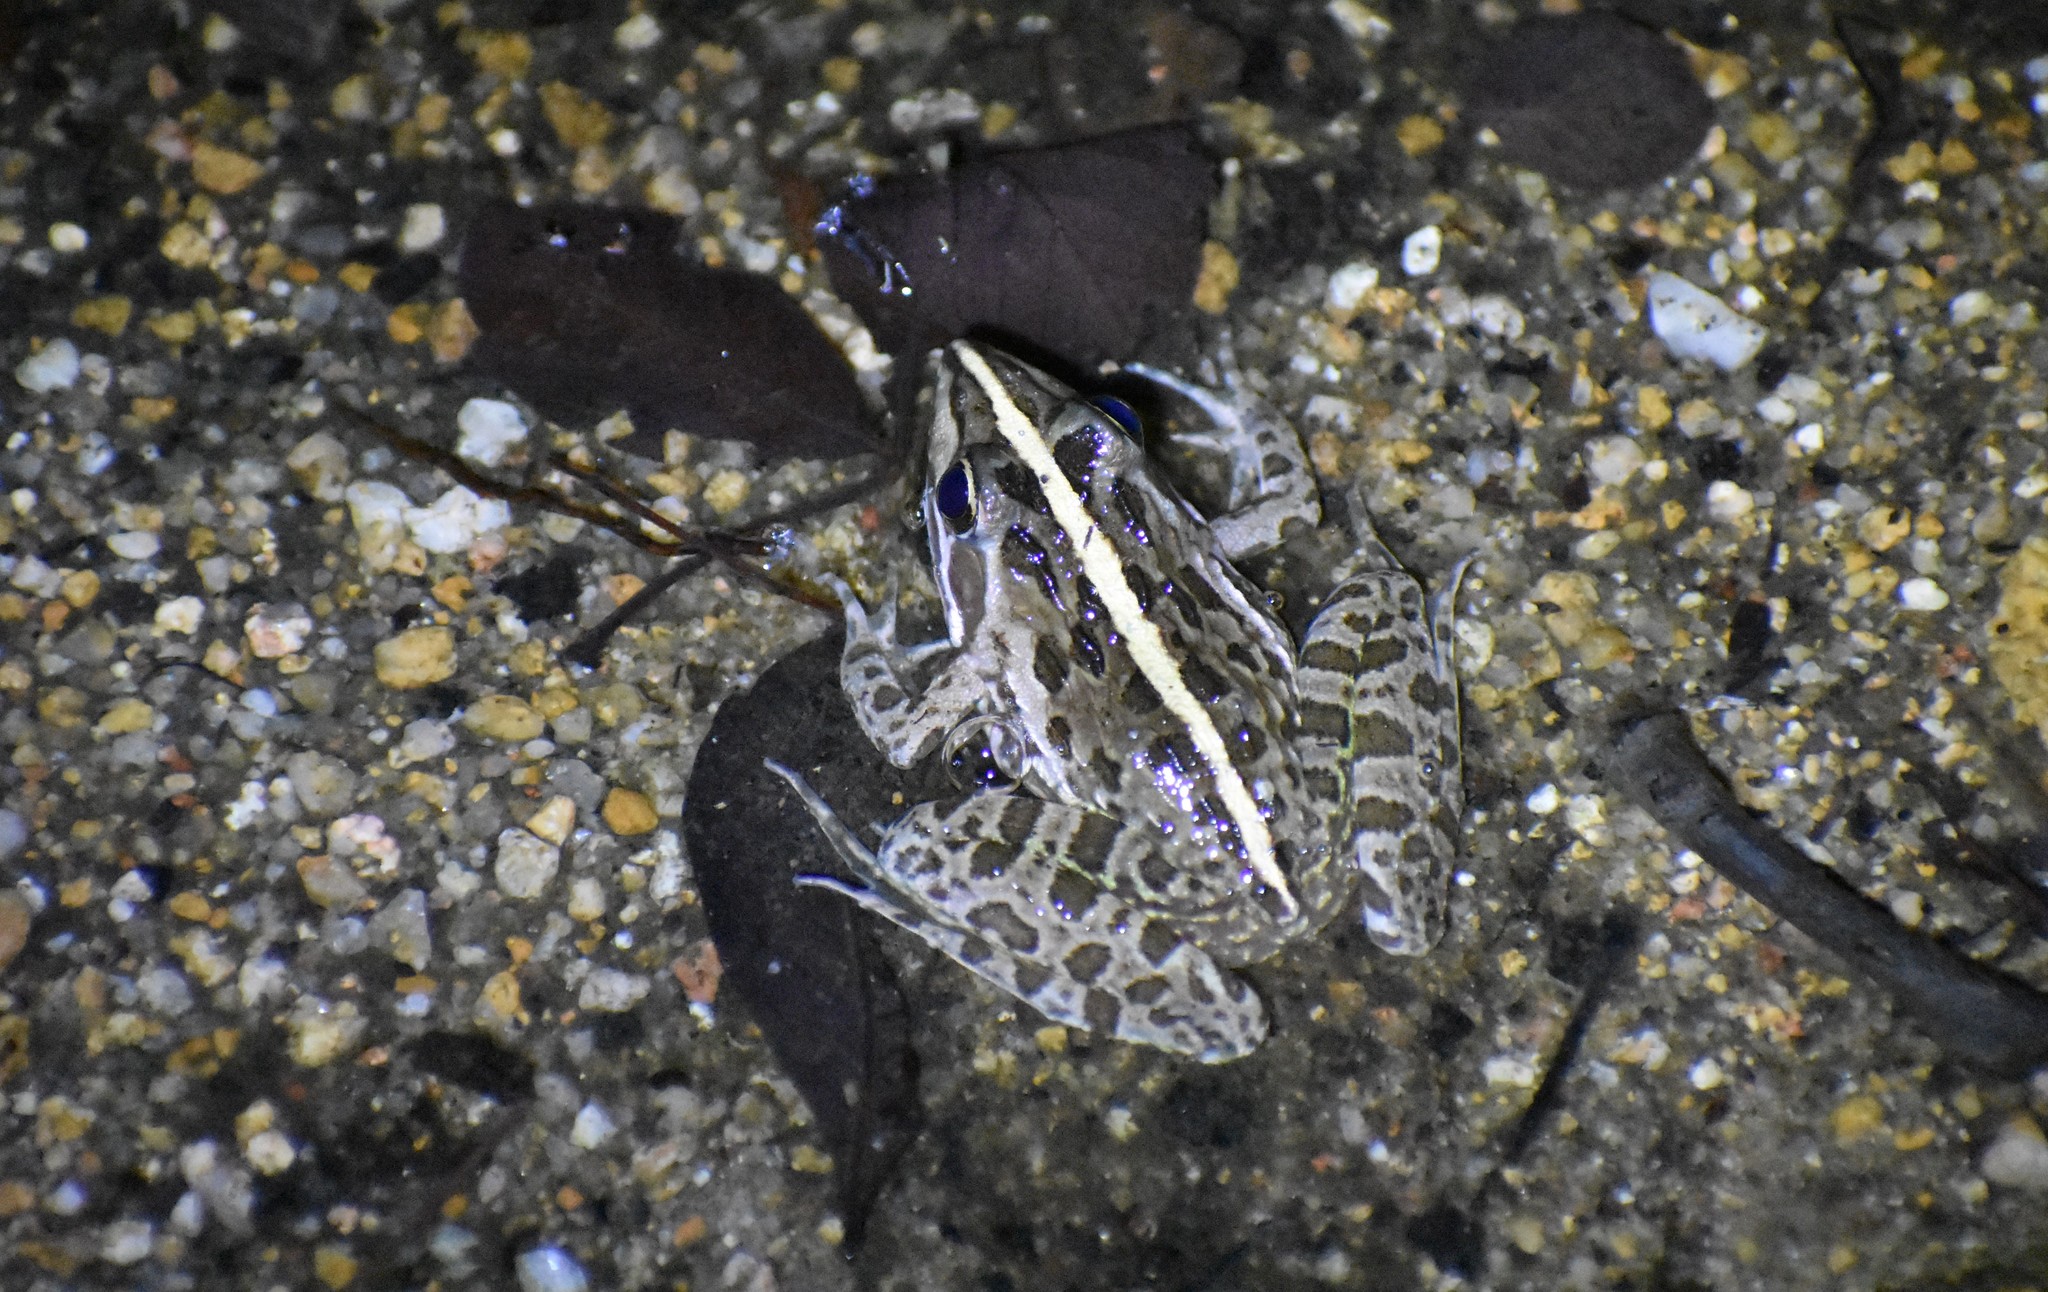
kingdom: Animalia
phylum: Chordata
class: Amphibia
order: Anura
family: Pyxicephalidae
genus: Amietia
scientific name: Amietia delalandii
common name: Delalande's river frog
